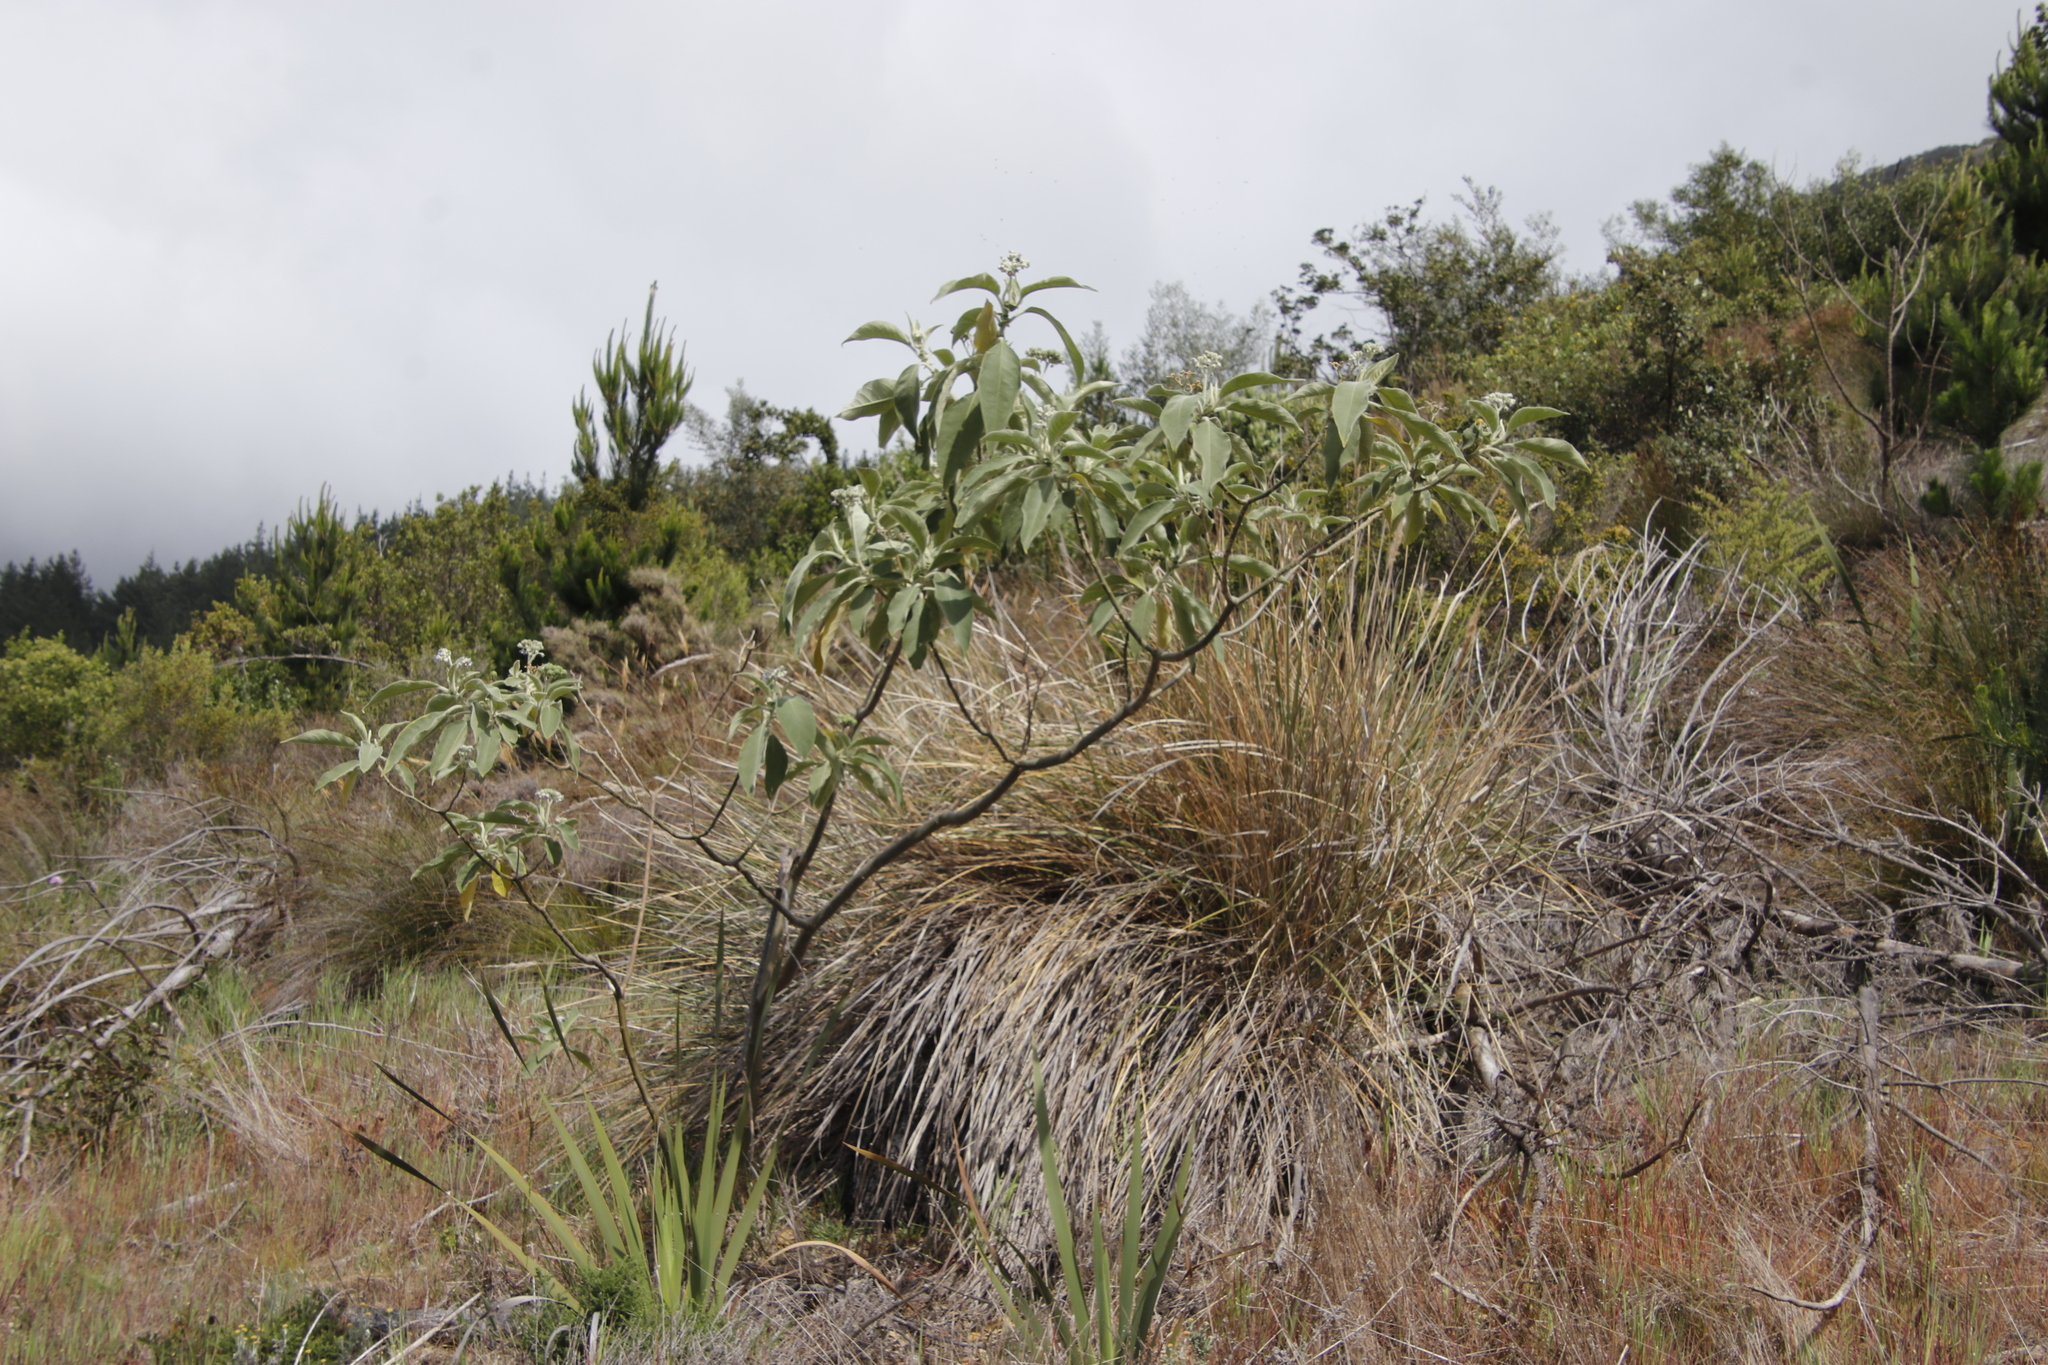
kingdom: Plantae
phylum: Tracheophyta
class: Magnoliopsida
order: Solanales
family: Solanaceae
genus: Solanum
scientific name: Solanum mauritianum
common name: Earleaf nightshade
